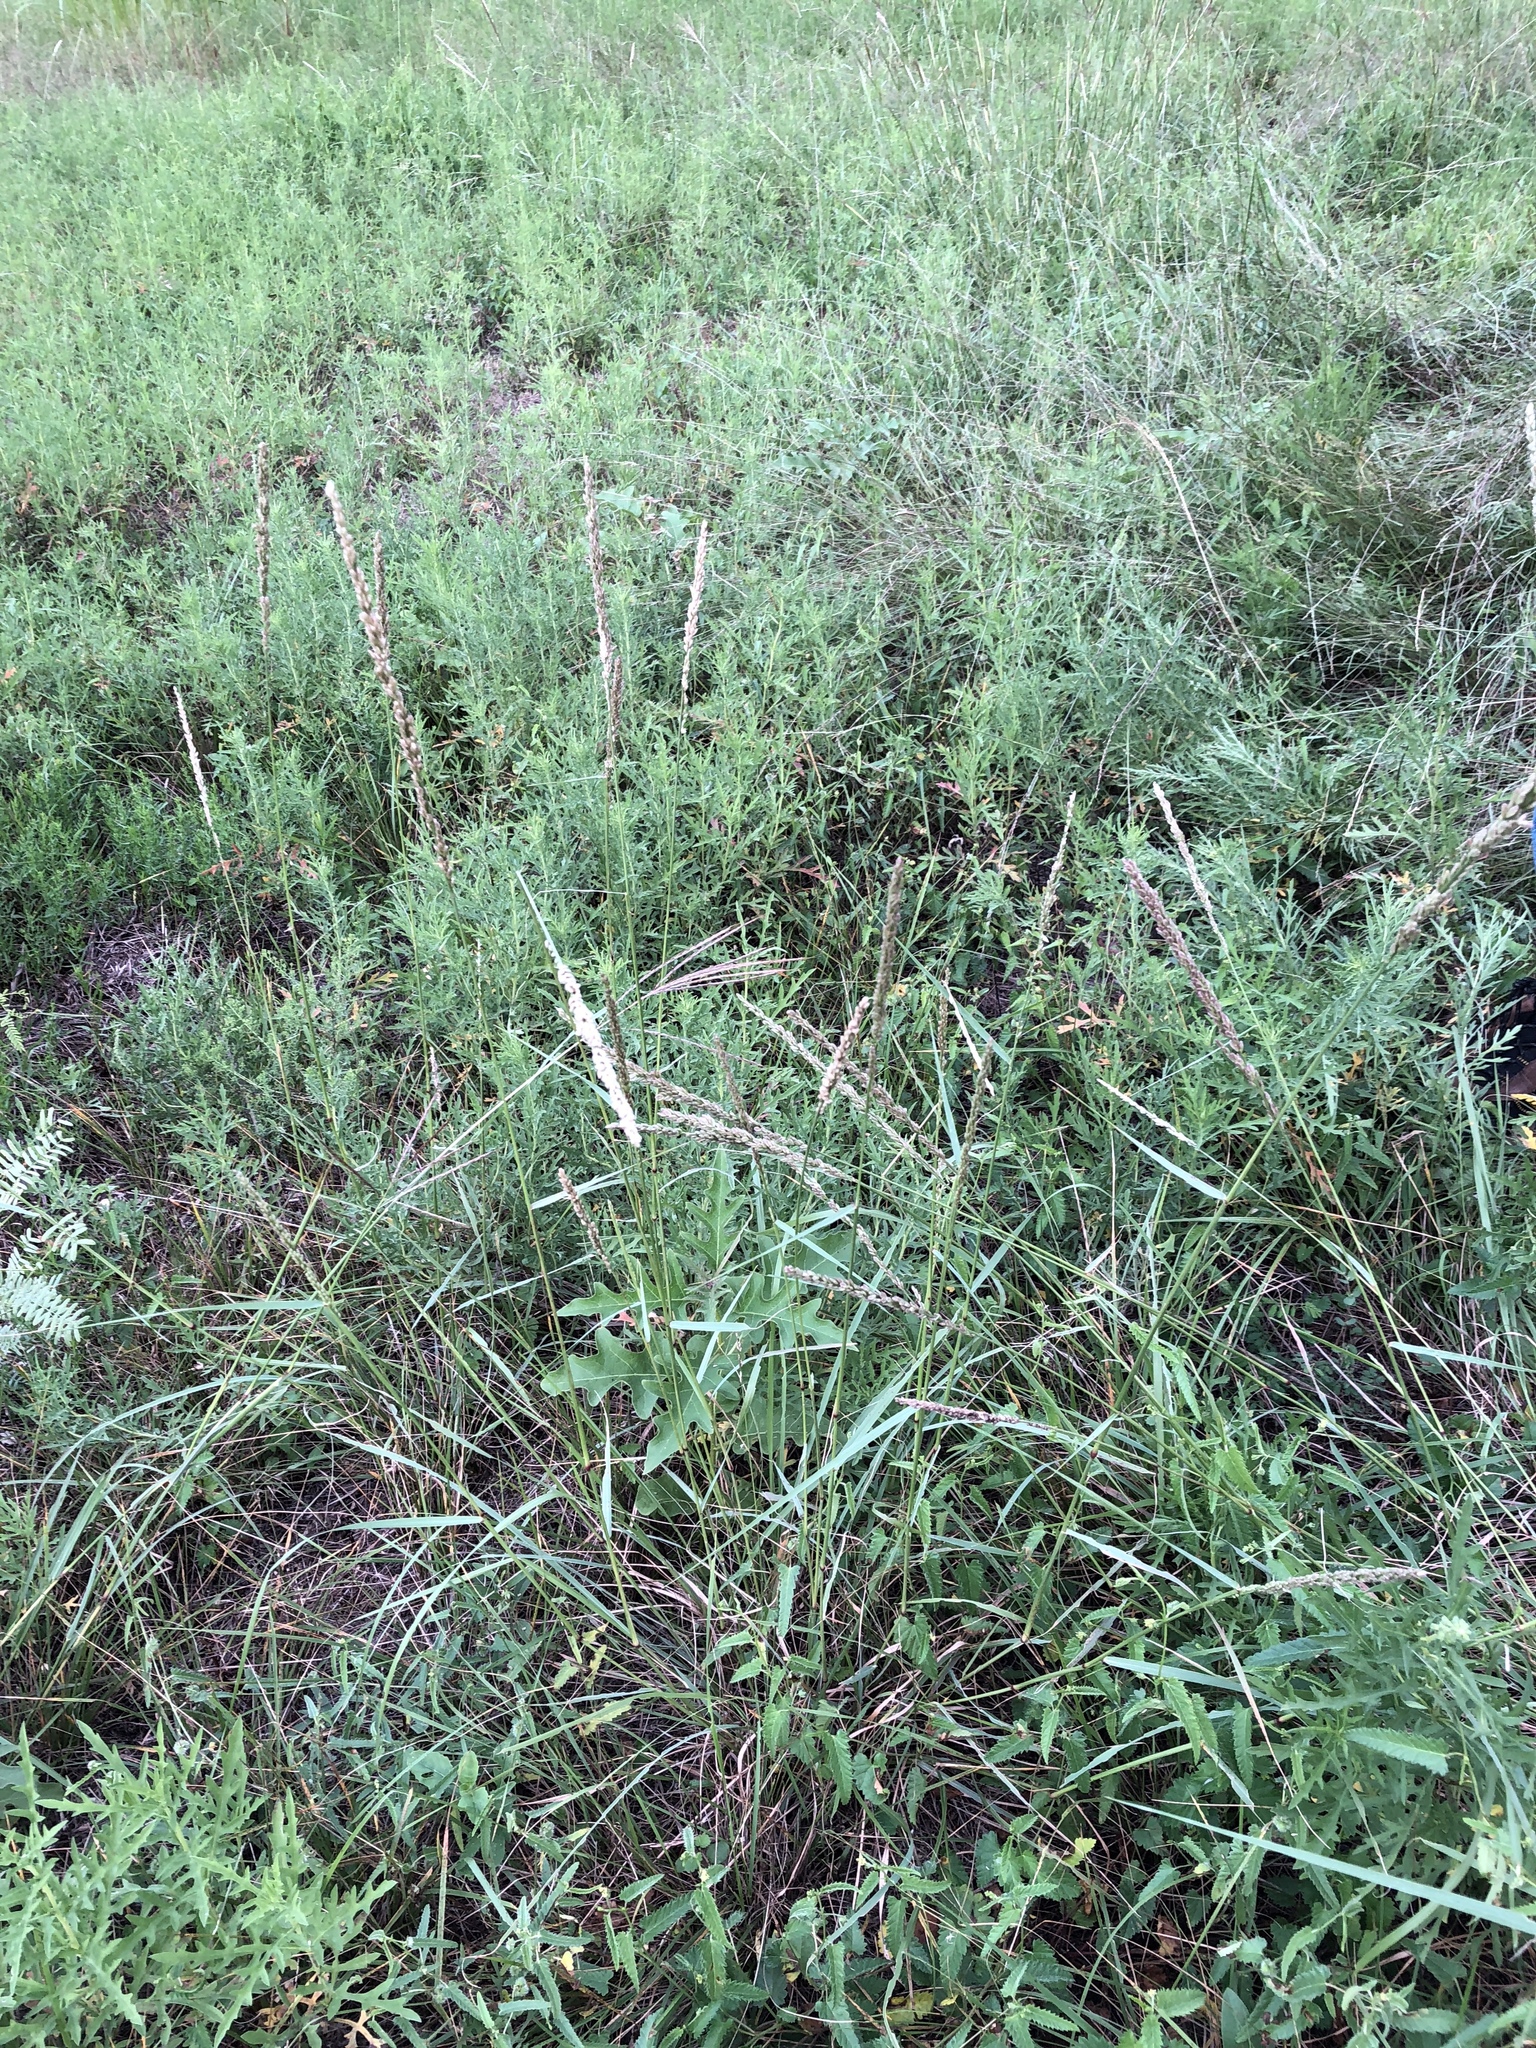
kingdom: Plantae
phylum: Tracheophyta
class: Liliopsida
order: Poales
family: Poaceae
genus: Tridens
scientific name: Tridens albescens
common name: White tridens
